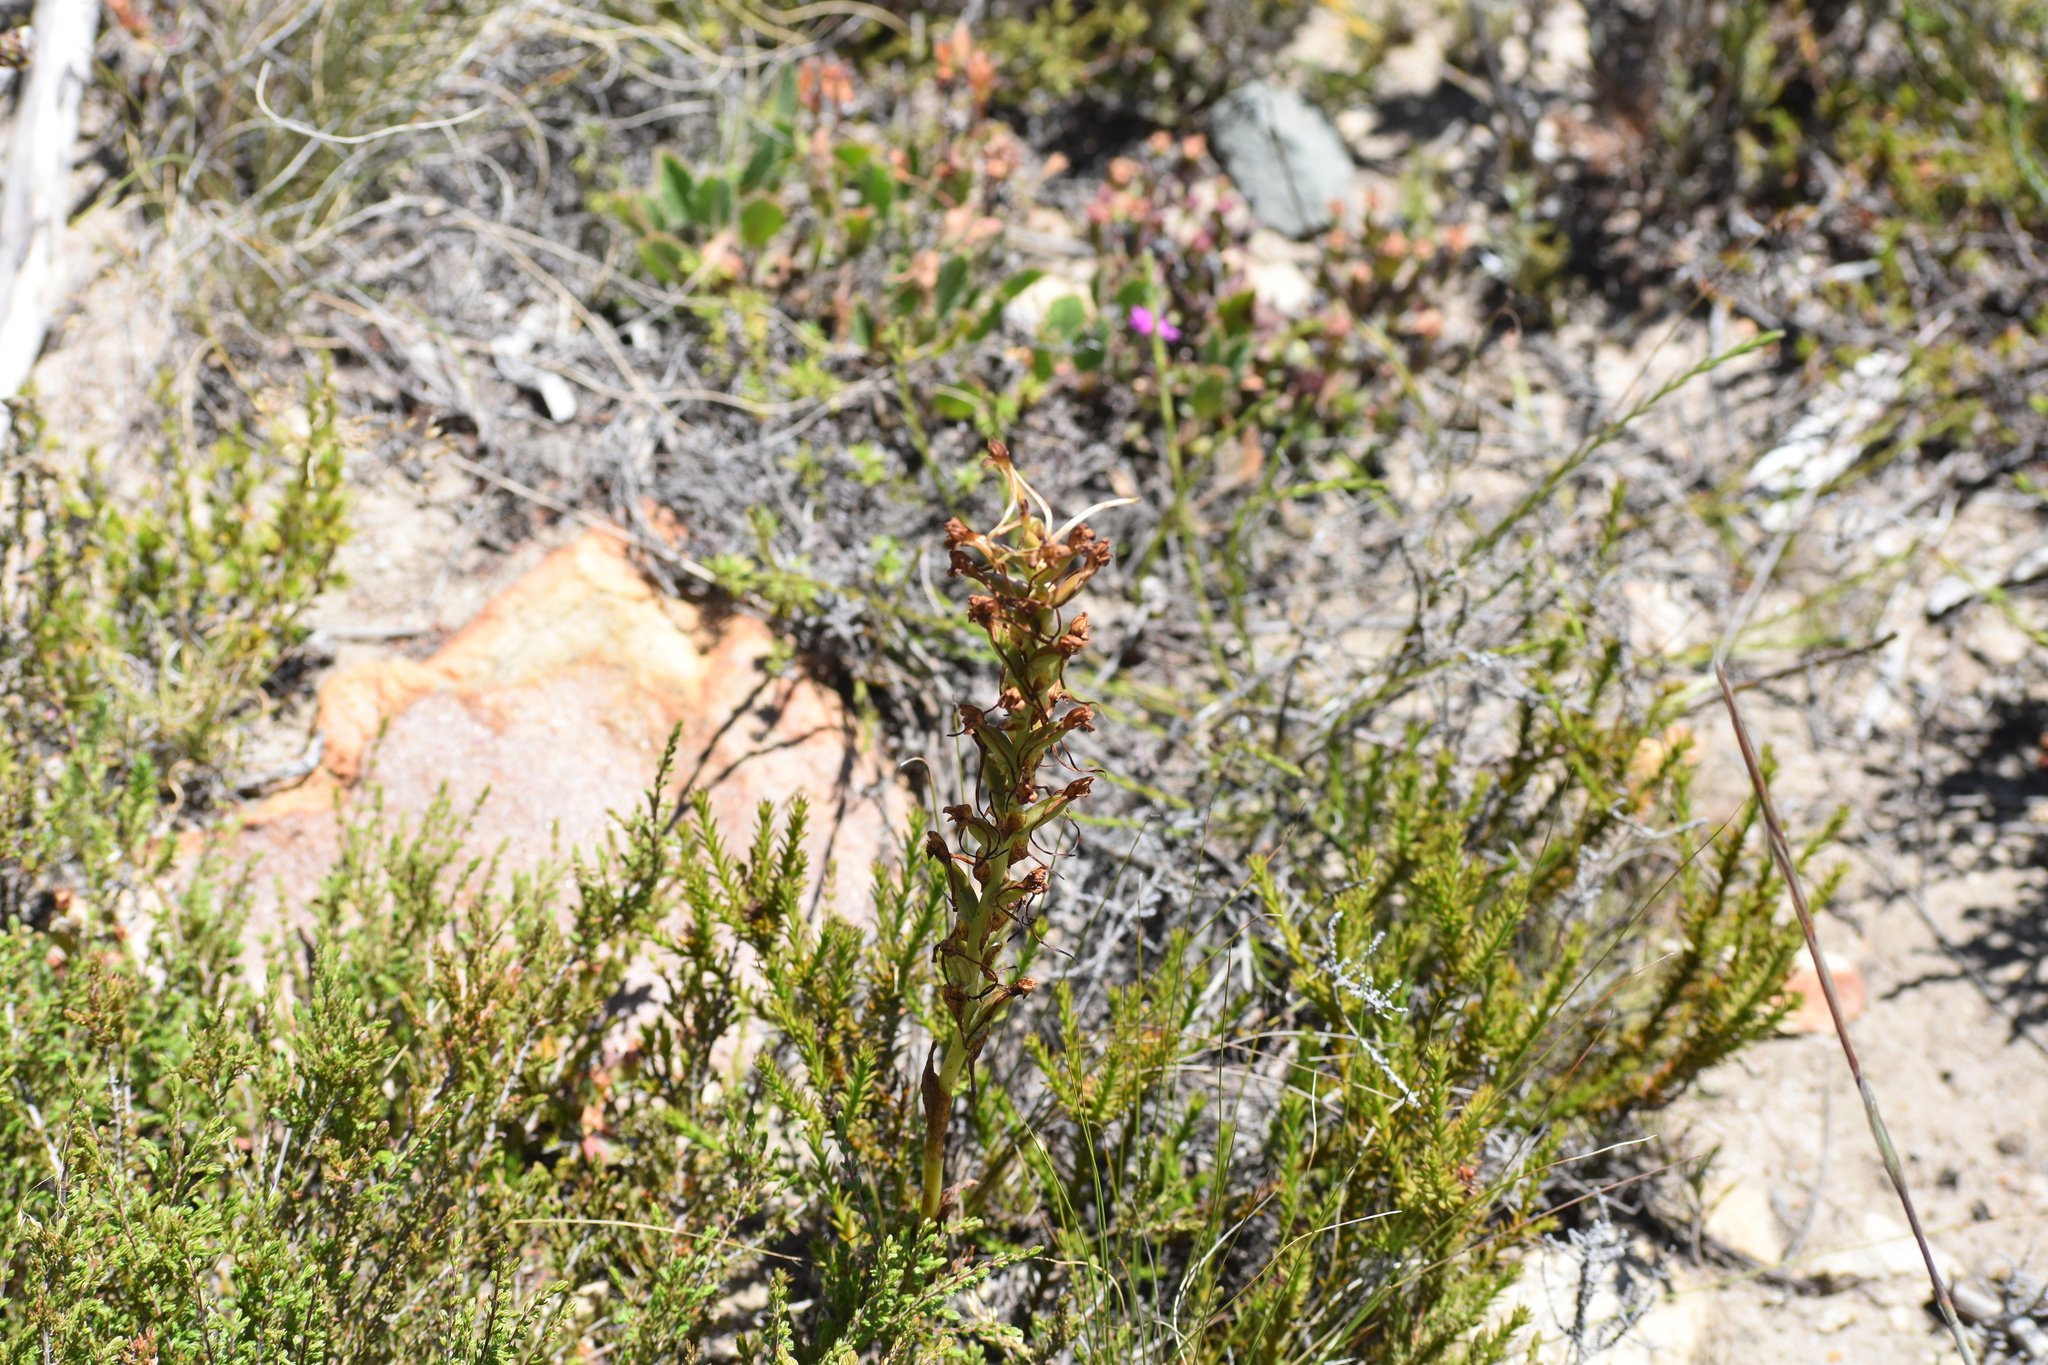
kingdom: Plantae
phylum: Tracheophyta
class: Liliopsida
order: Asparagales
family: Orchidaceae
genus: Satyrium
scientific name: Satyrium eurycalcaratum
